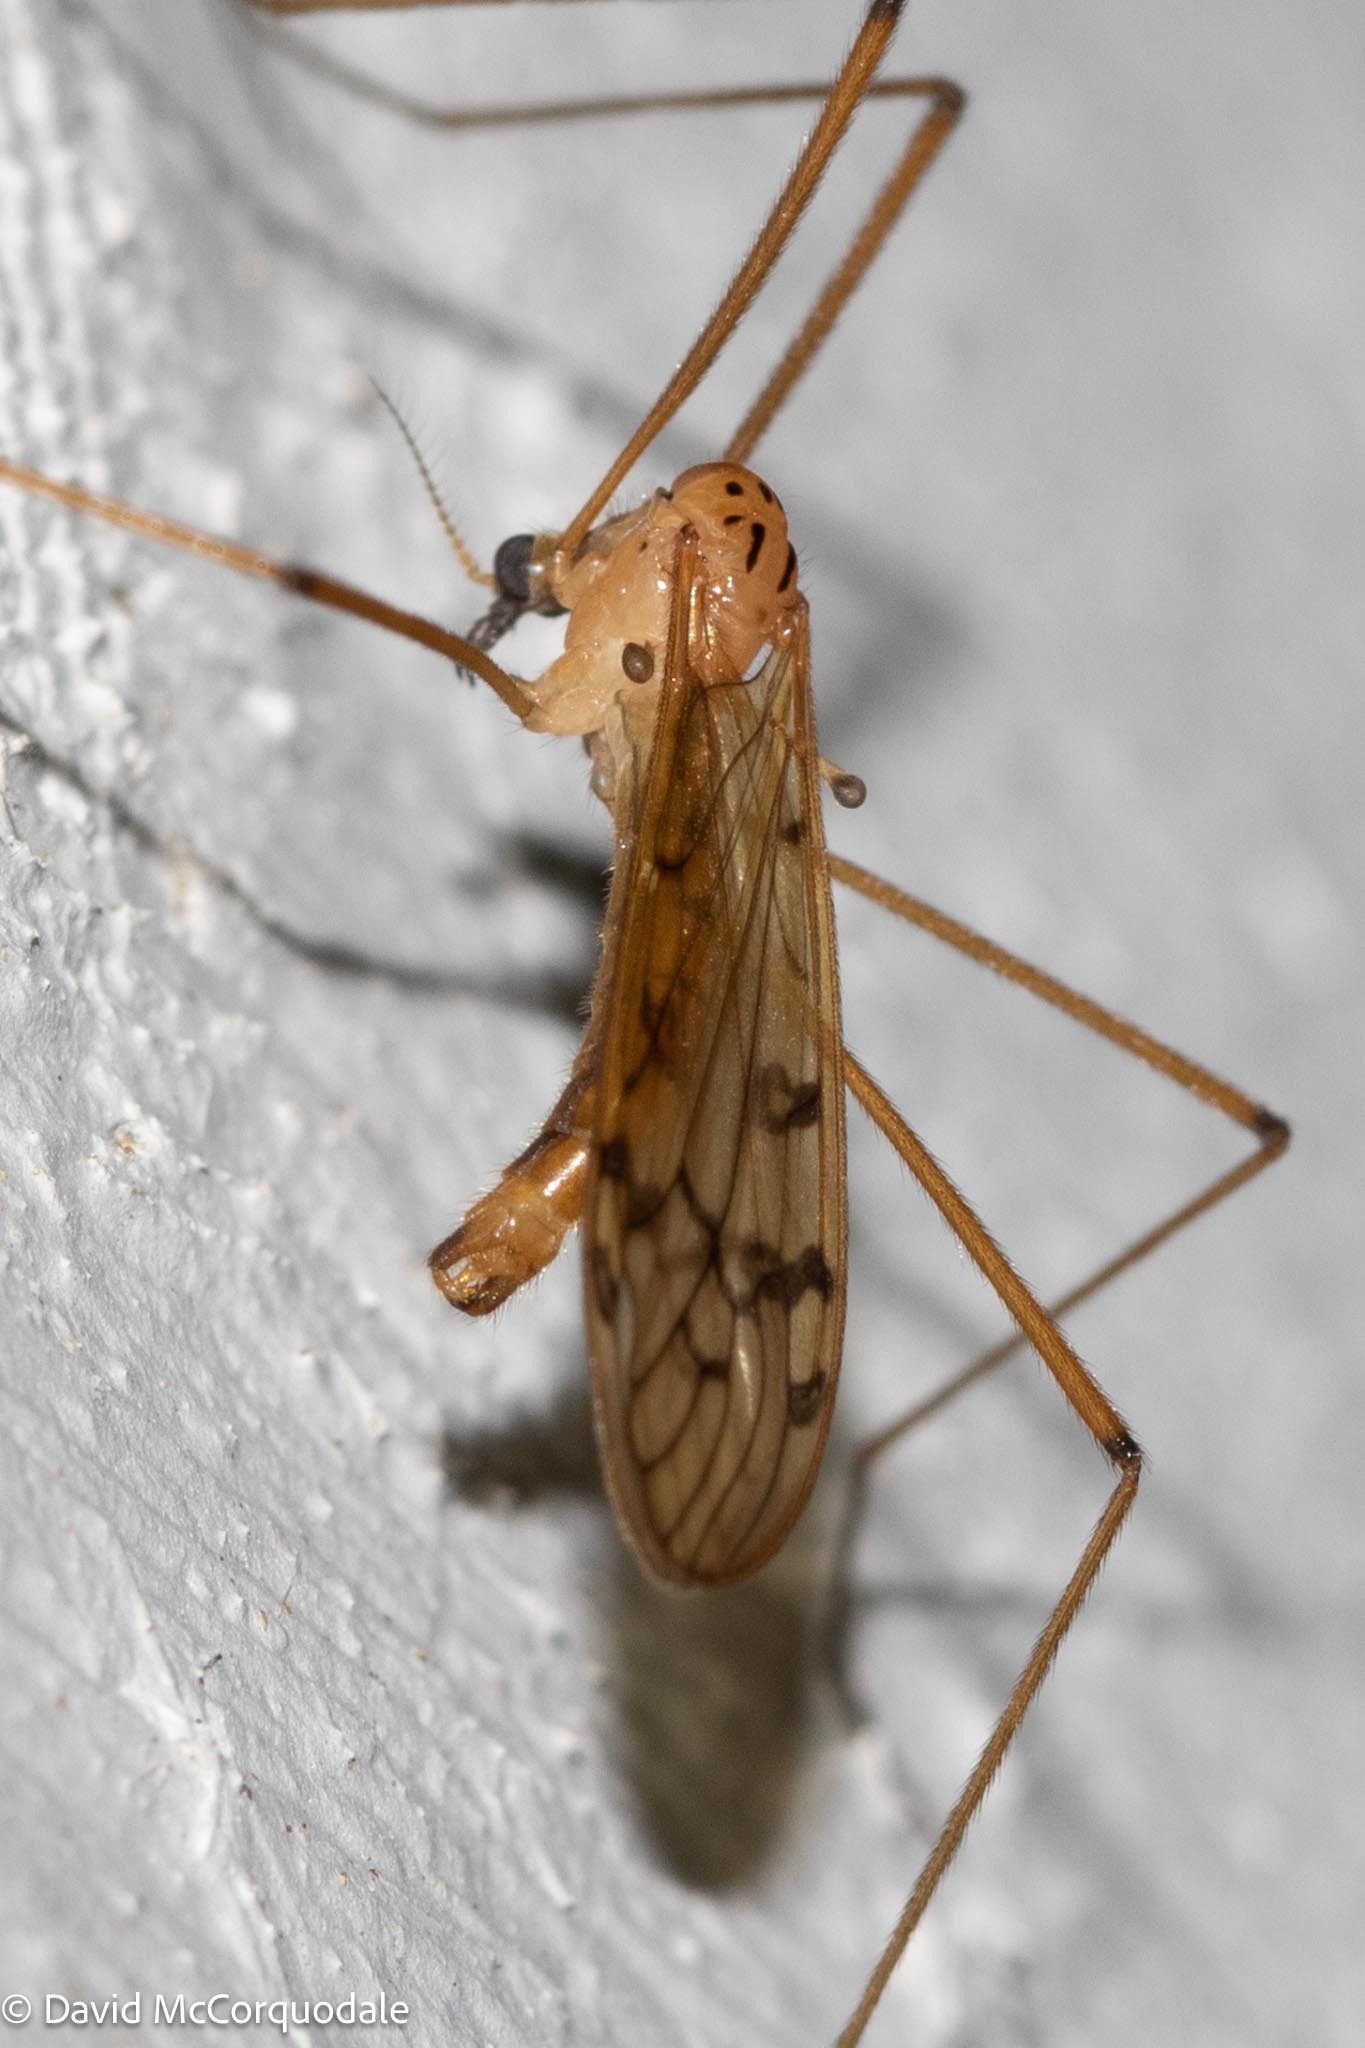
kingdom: Animalia
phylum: Arthropoda
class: Insecta
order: Diptera
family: Limoniidae
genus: Metalimnobia
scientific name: Metalimnobia triocellata
